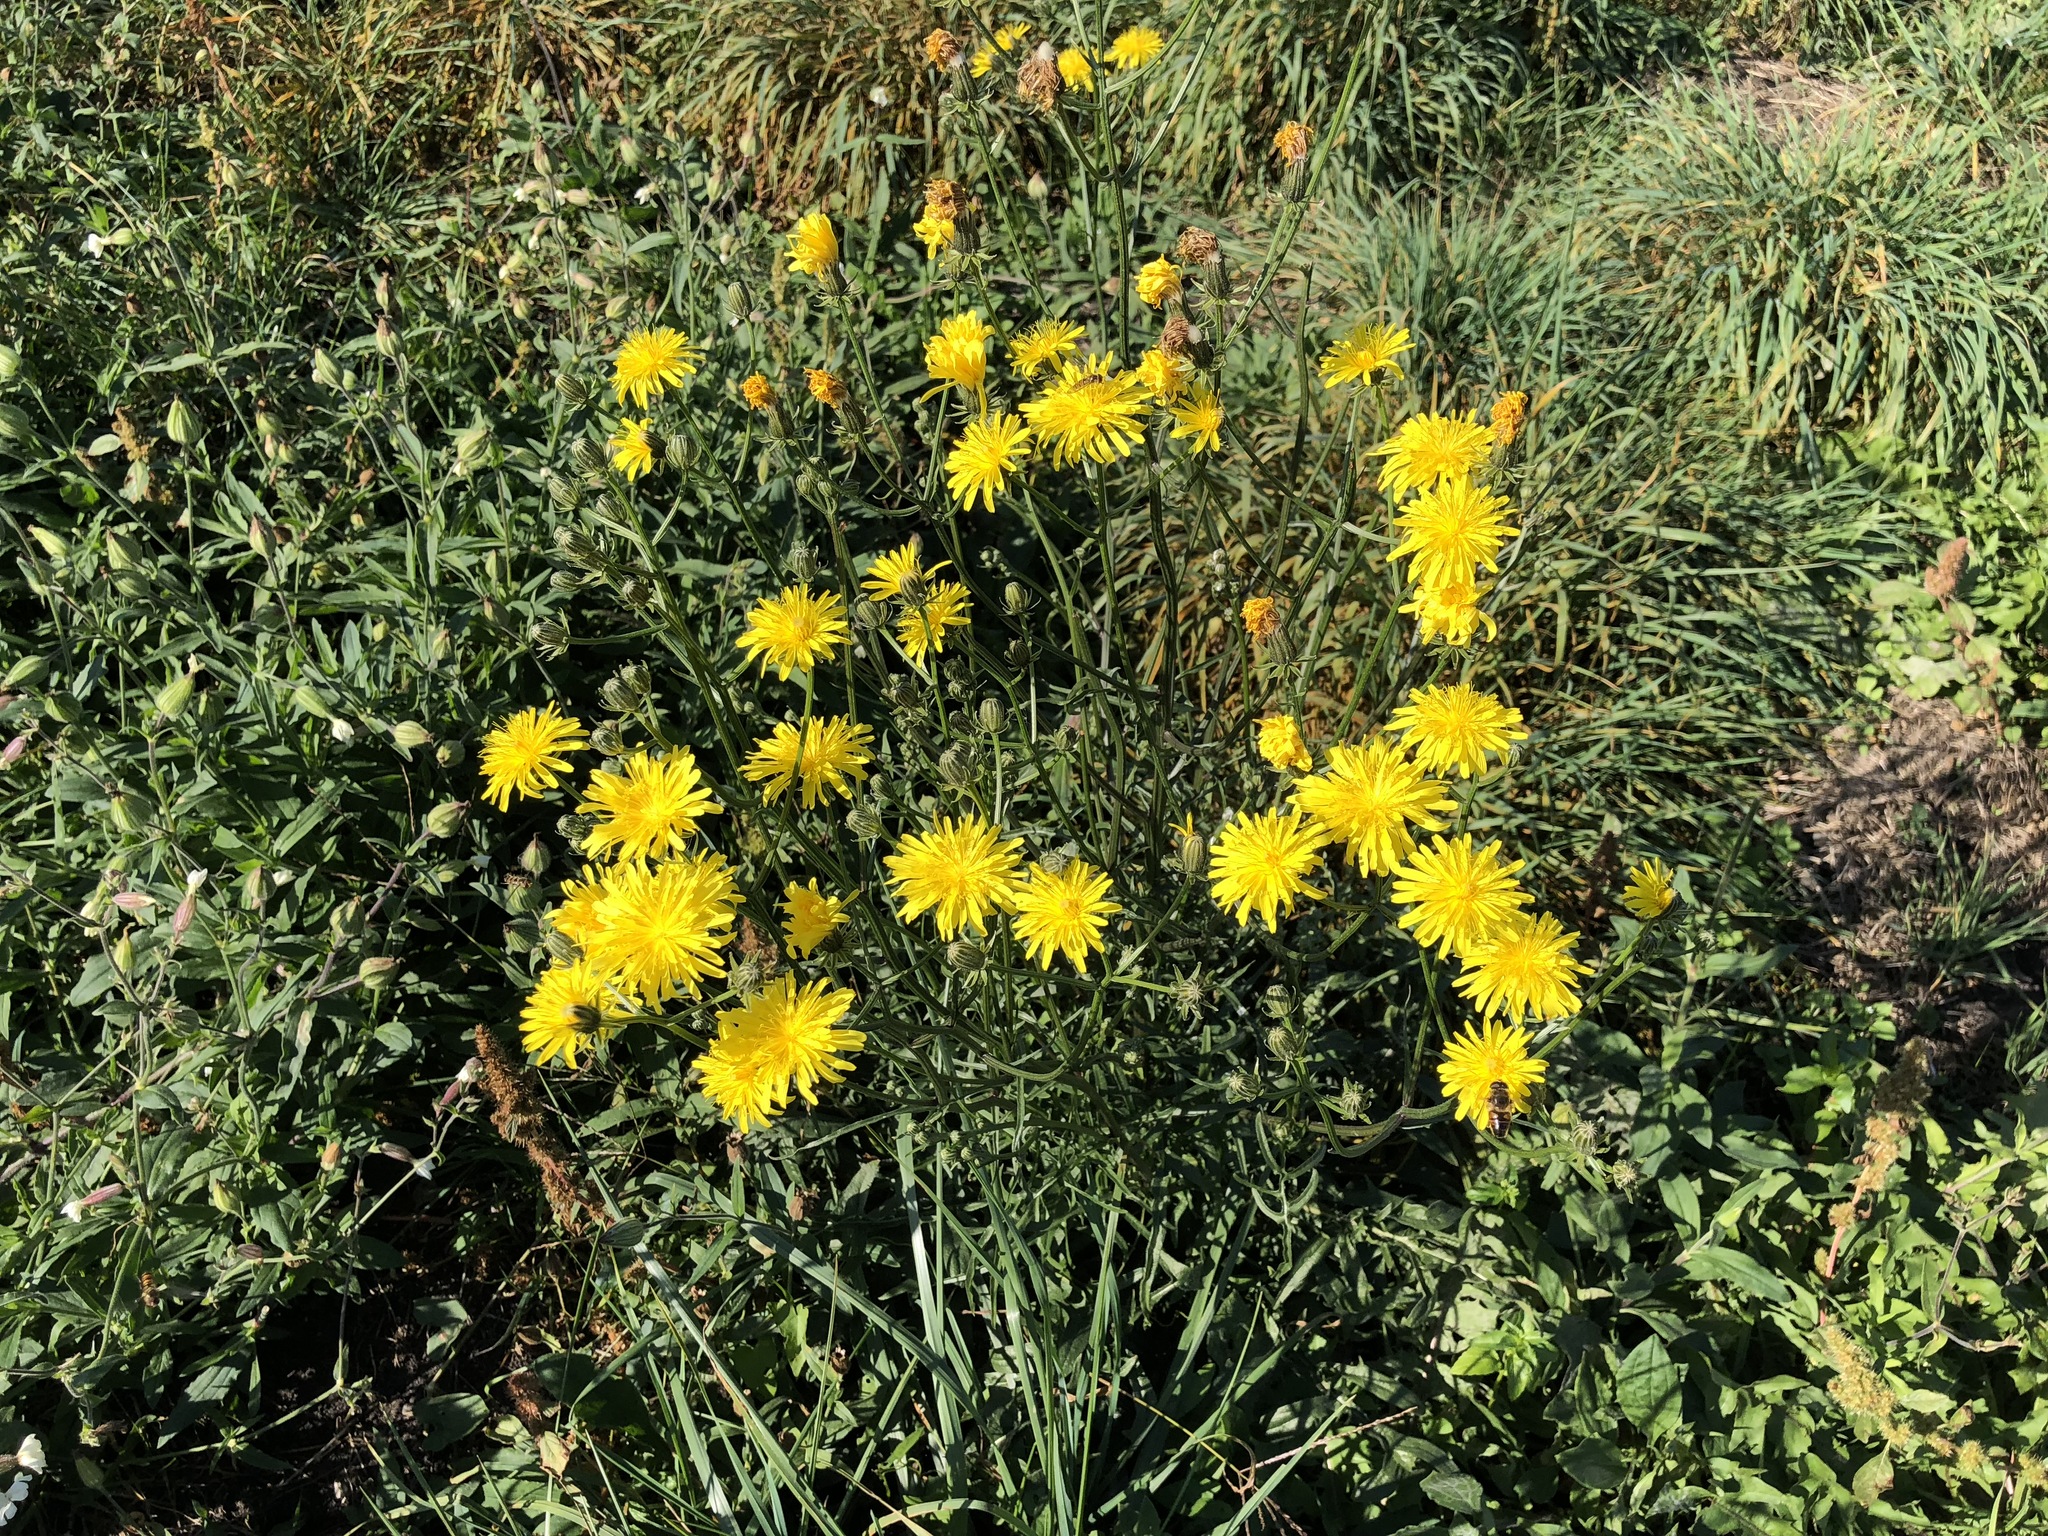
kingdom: Plantae
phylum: Tracheophyta
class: Magnoliopsida
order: Asterales
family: Asteraceae
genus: Crepis
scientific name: Crepis biennis
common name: Rough hawk's-beard
